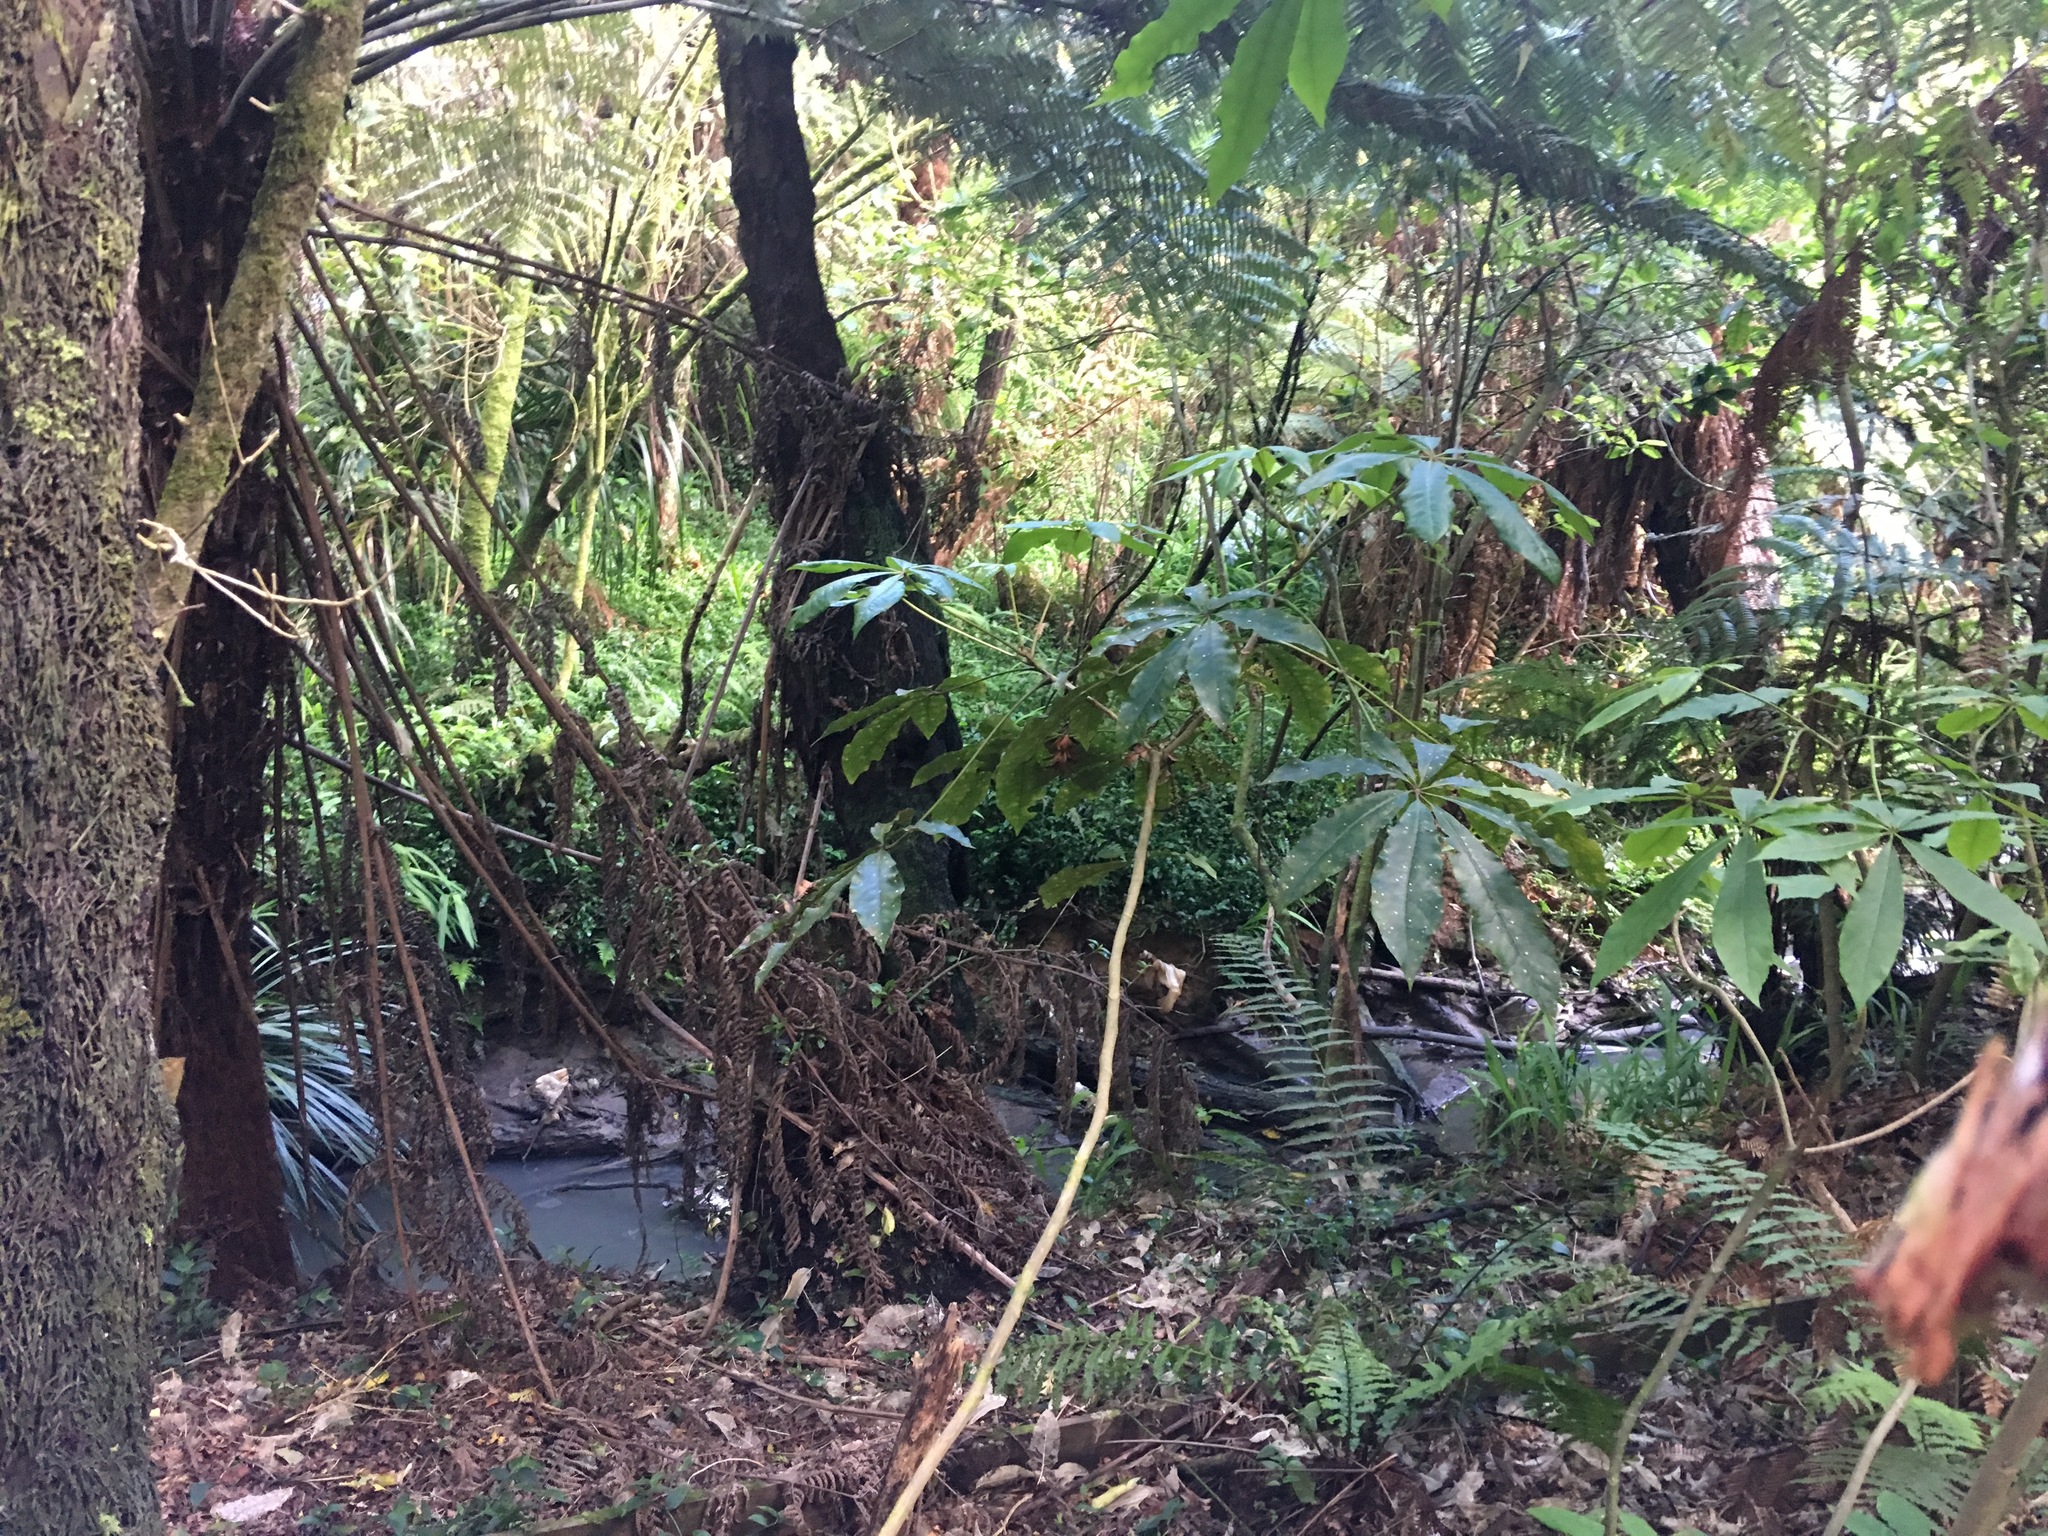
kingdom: Plantae
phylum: Tracheophyta
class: Magnoliopsida
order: Apiales
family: Araliaceae
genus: Schefflera
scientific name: Schefflera digitata
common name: Pate
